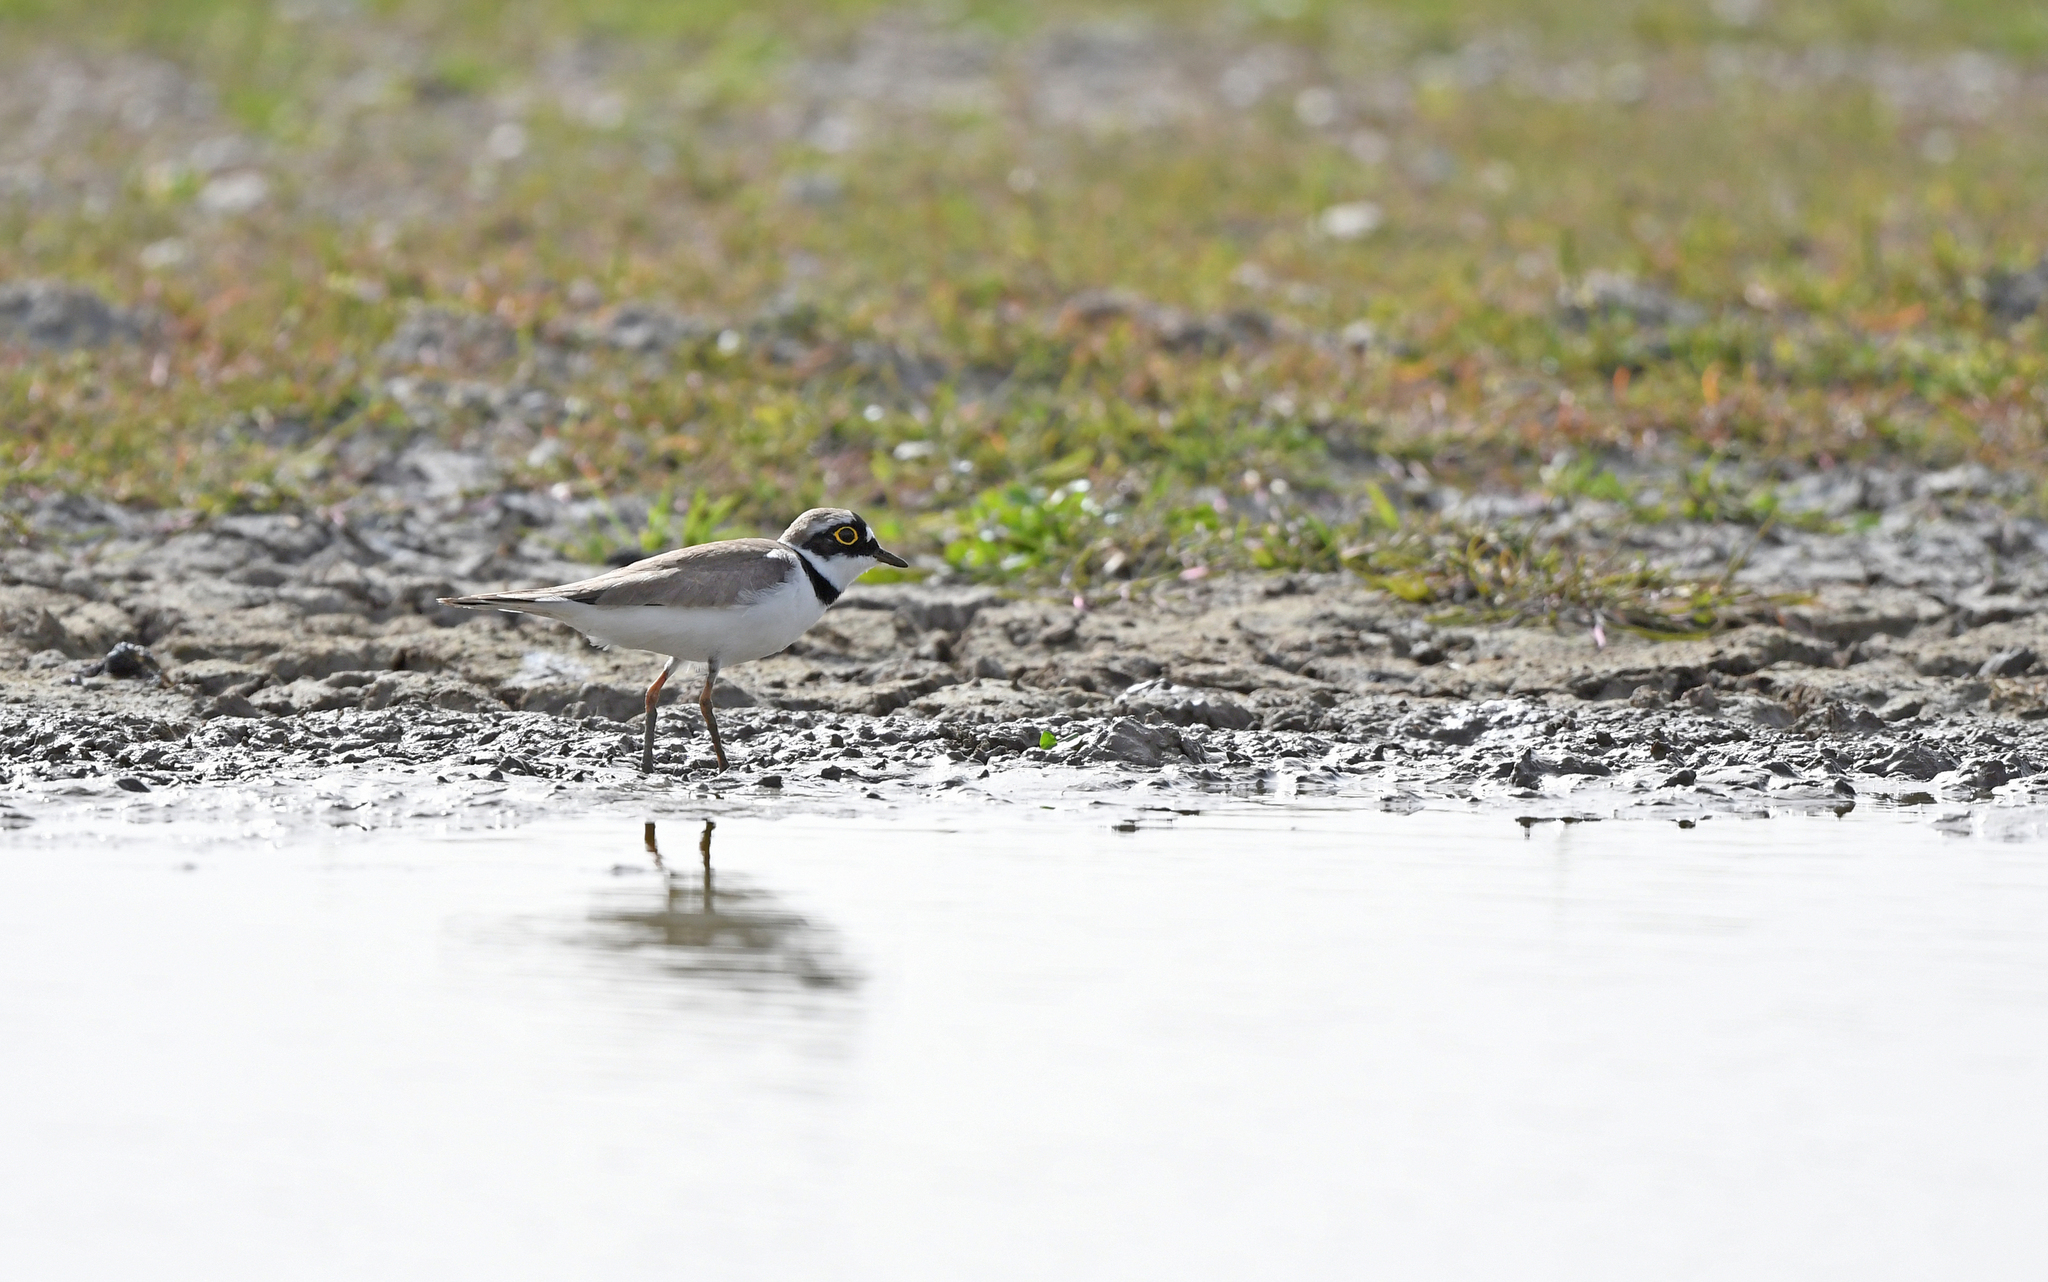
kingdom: Animalia
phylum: Chordata
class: Aves
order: Charadriiformes
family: Charadriidae
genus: Charadrius
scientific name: Charadrius dubius
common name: Little ringed plover
